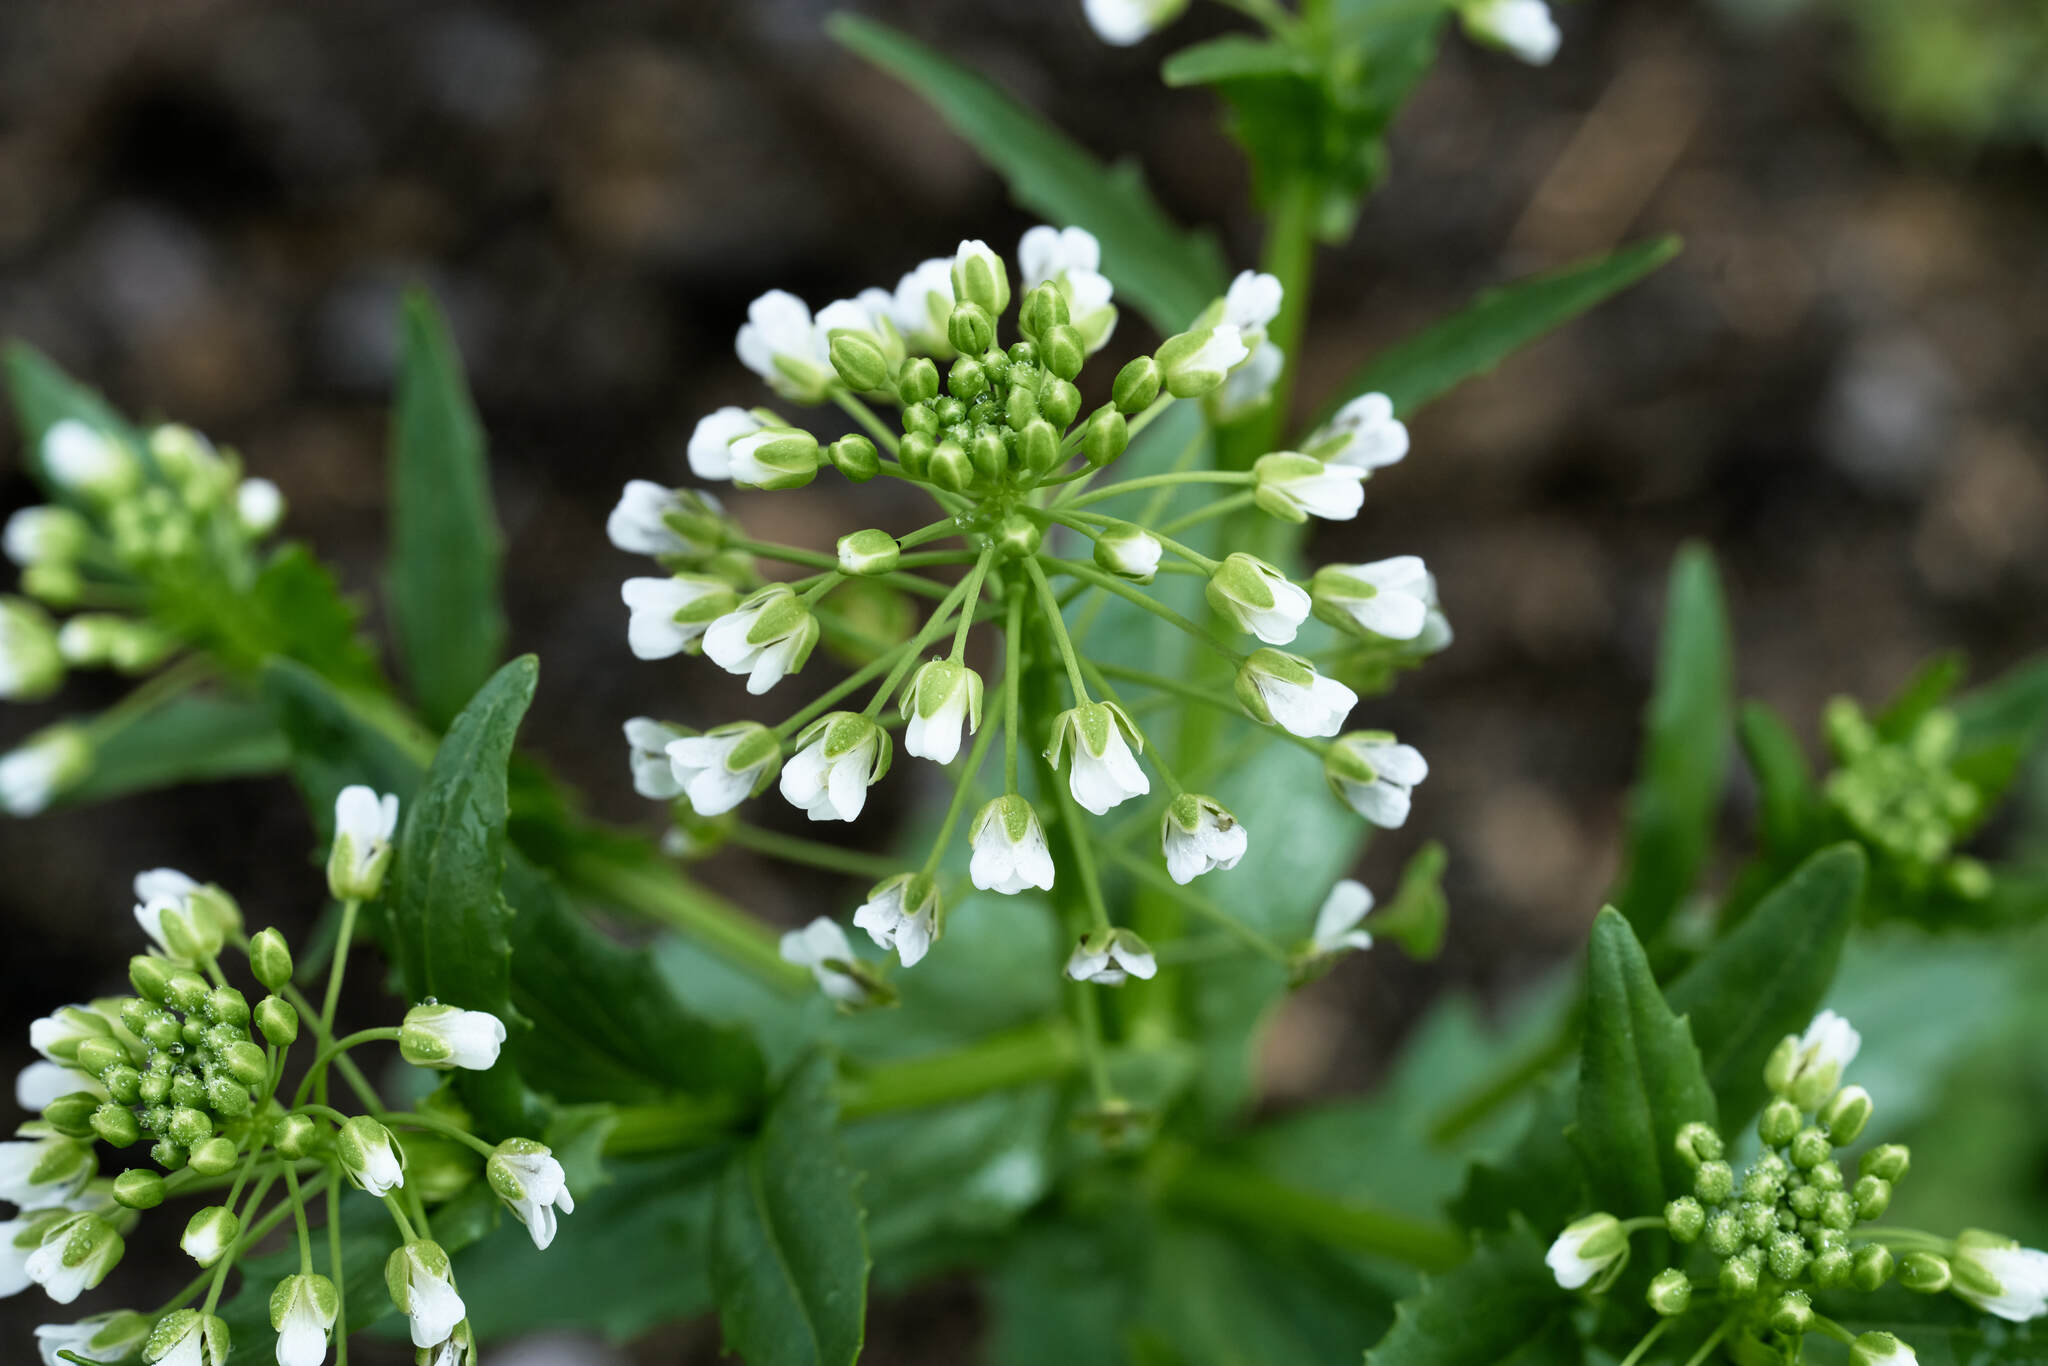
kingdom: Plantae
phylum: Tracheophyta
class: Magnoliopsida
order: Brassicales
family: Brassicaceae
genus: Thlaspi
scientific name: Thlaspi arvense
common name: Field pennycress
